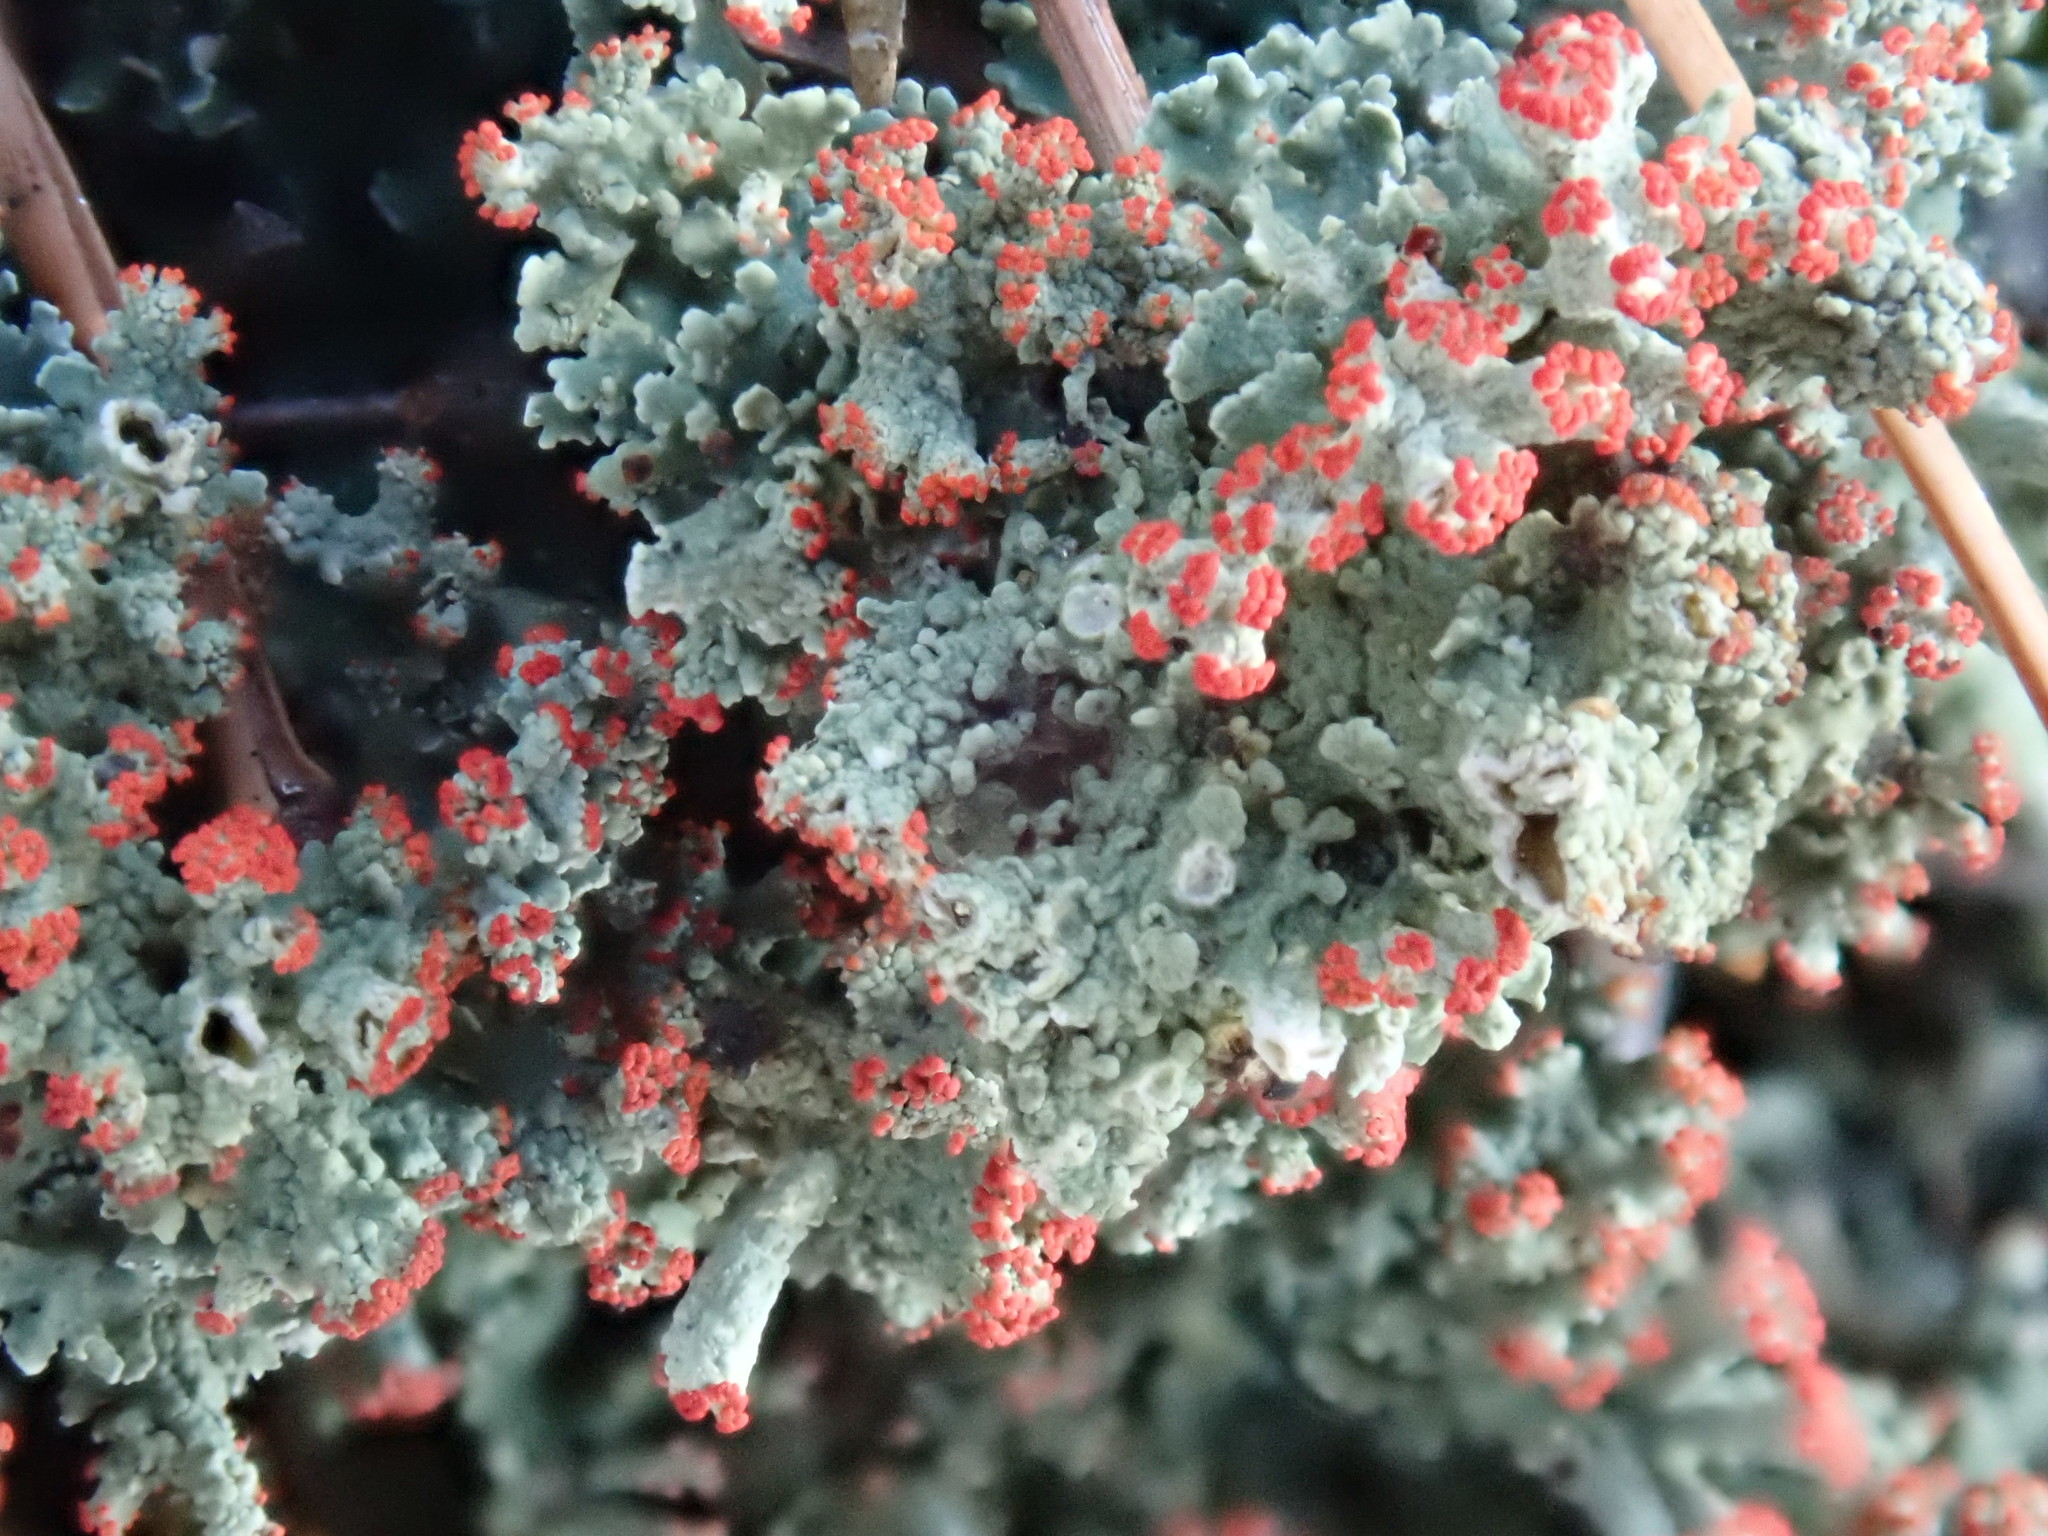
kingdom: Fungi
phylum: Ascomycota
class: Lecanoromycetes
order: Lecanorales
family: Cladoniaceae
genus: Cladonia
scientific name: Cladonia
